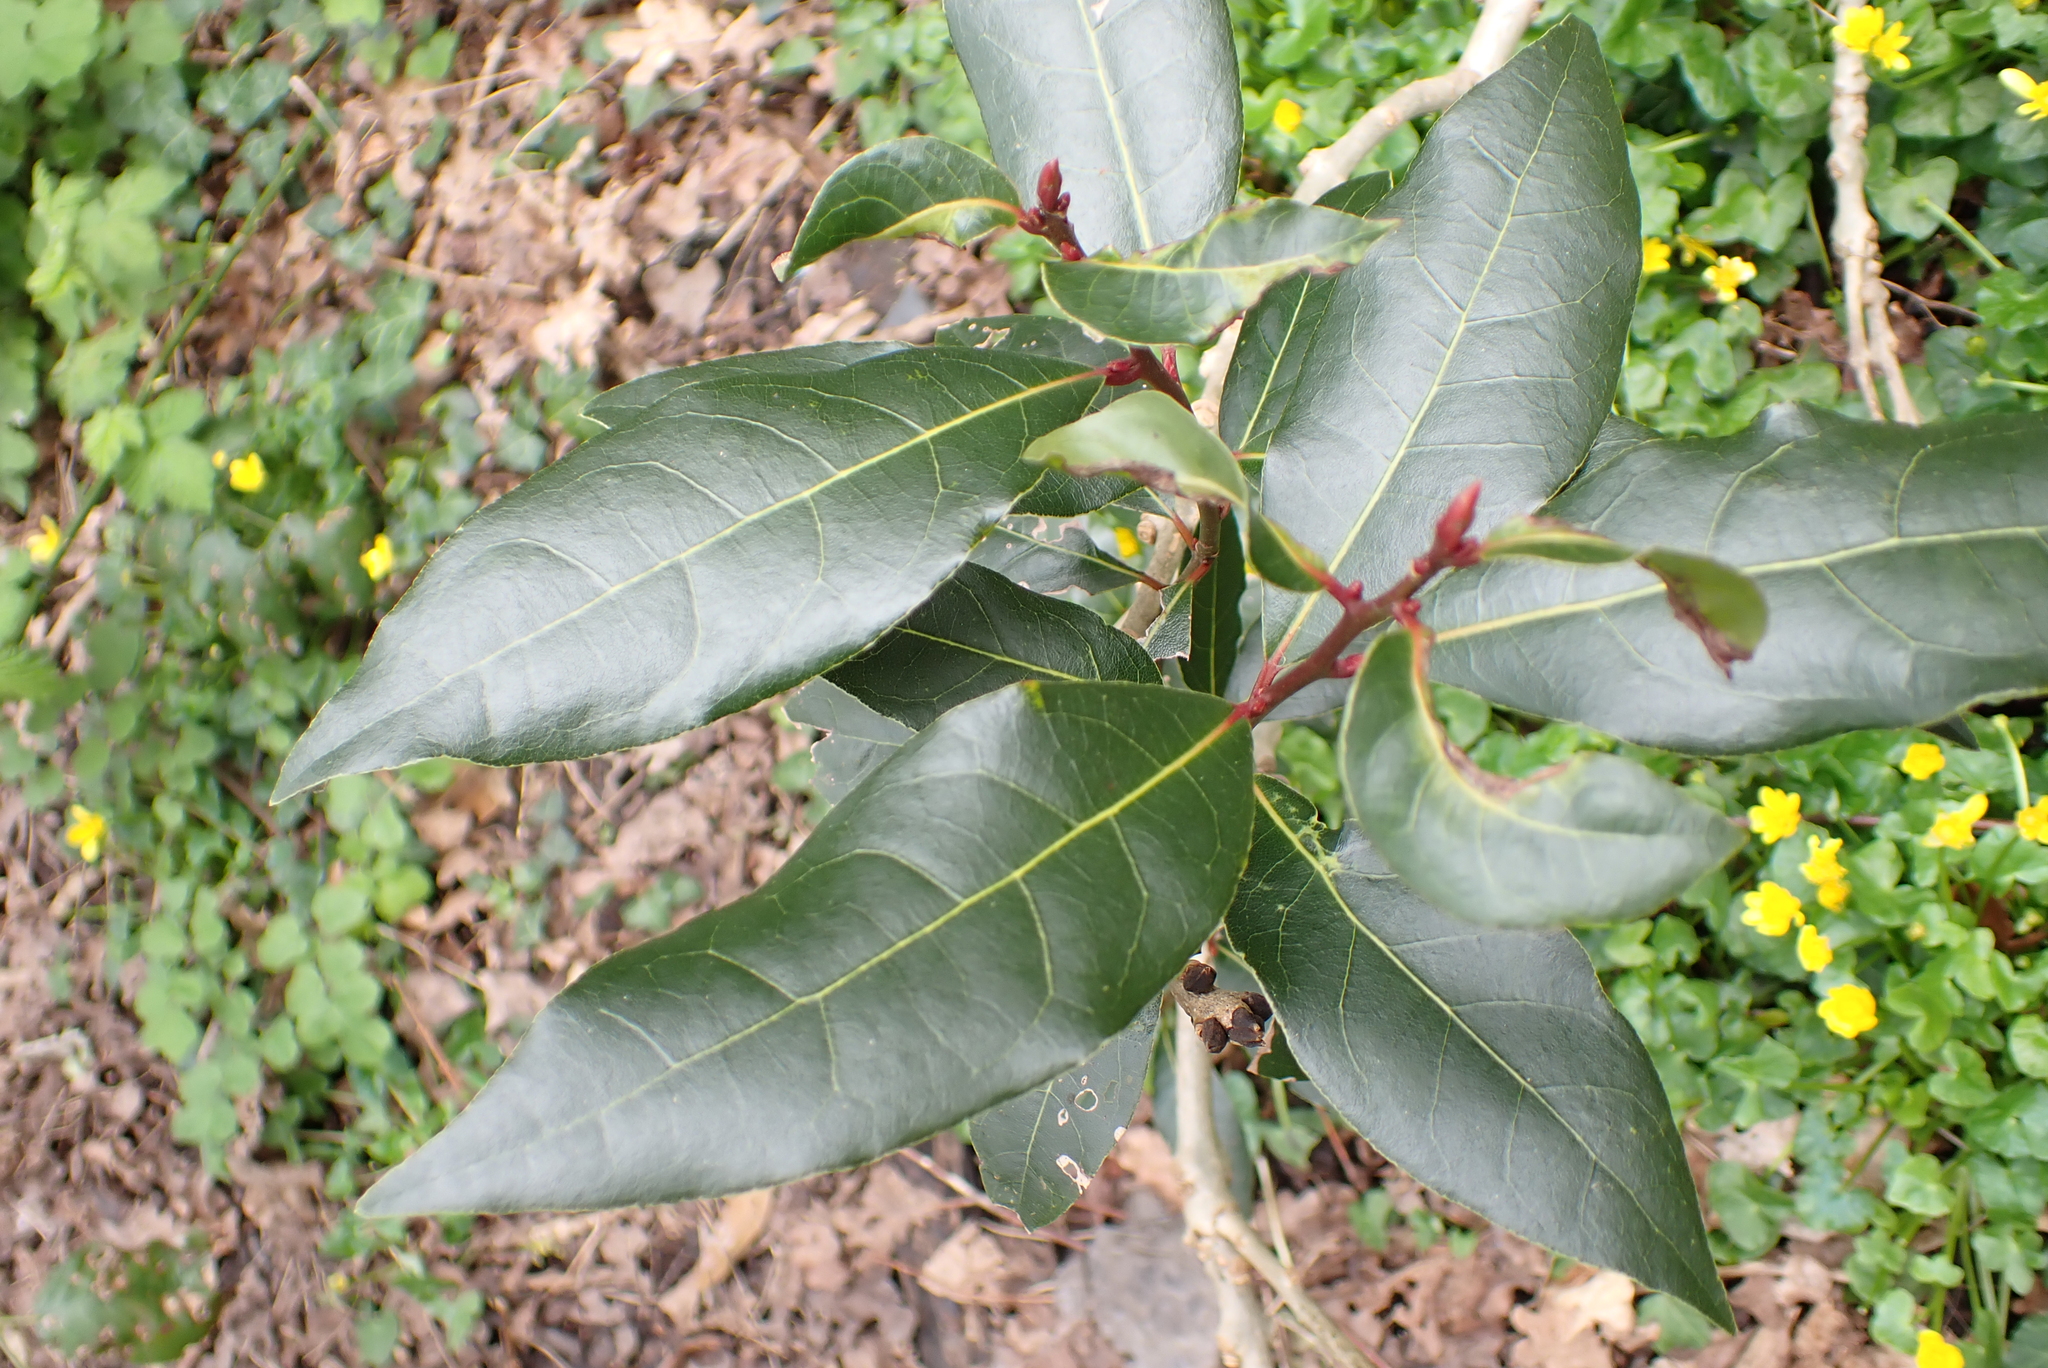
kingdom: Plantae
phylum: Tracheophyta
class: Magnoliopsida
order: Laurales
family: Lauraceae
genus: Laurus
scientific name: Laurus nobilis
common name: Bay
